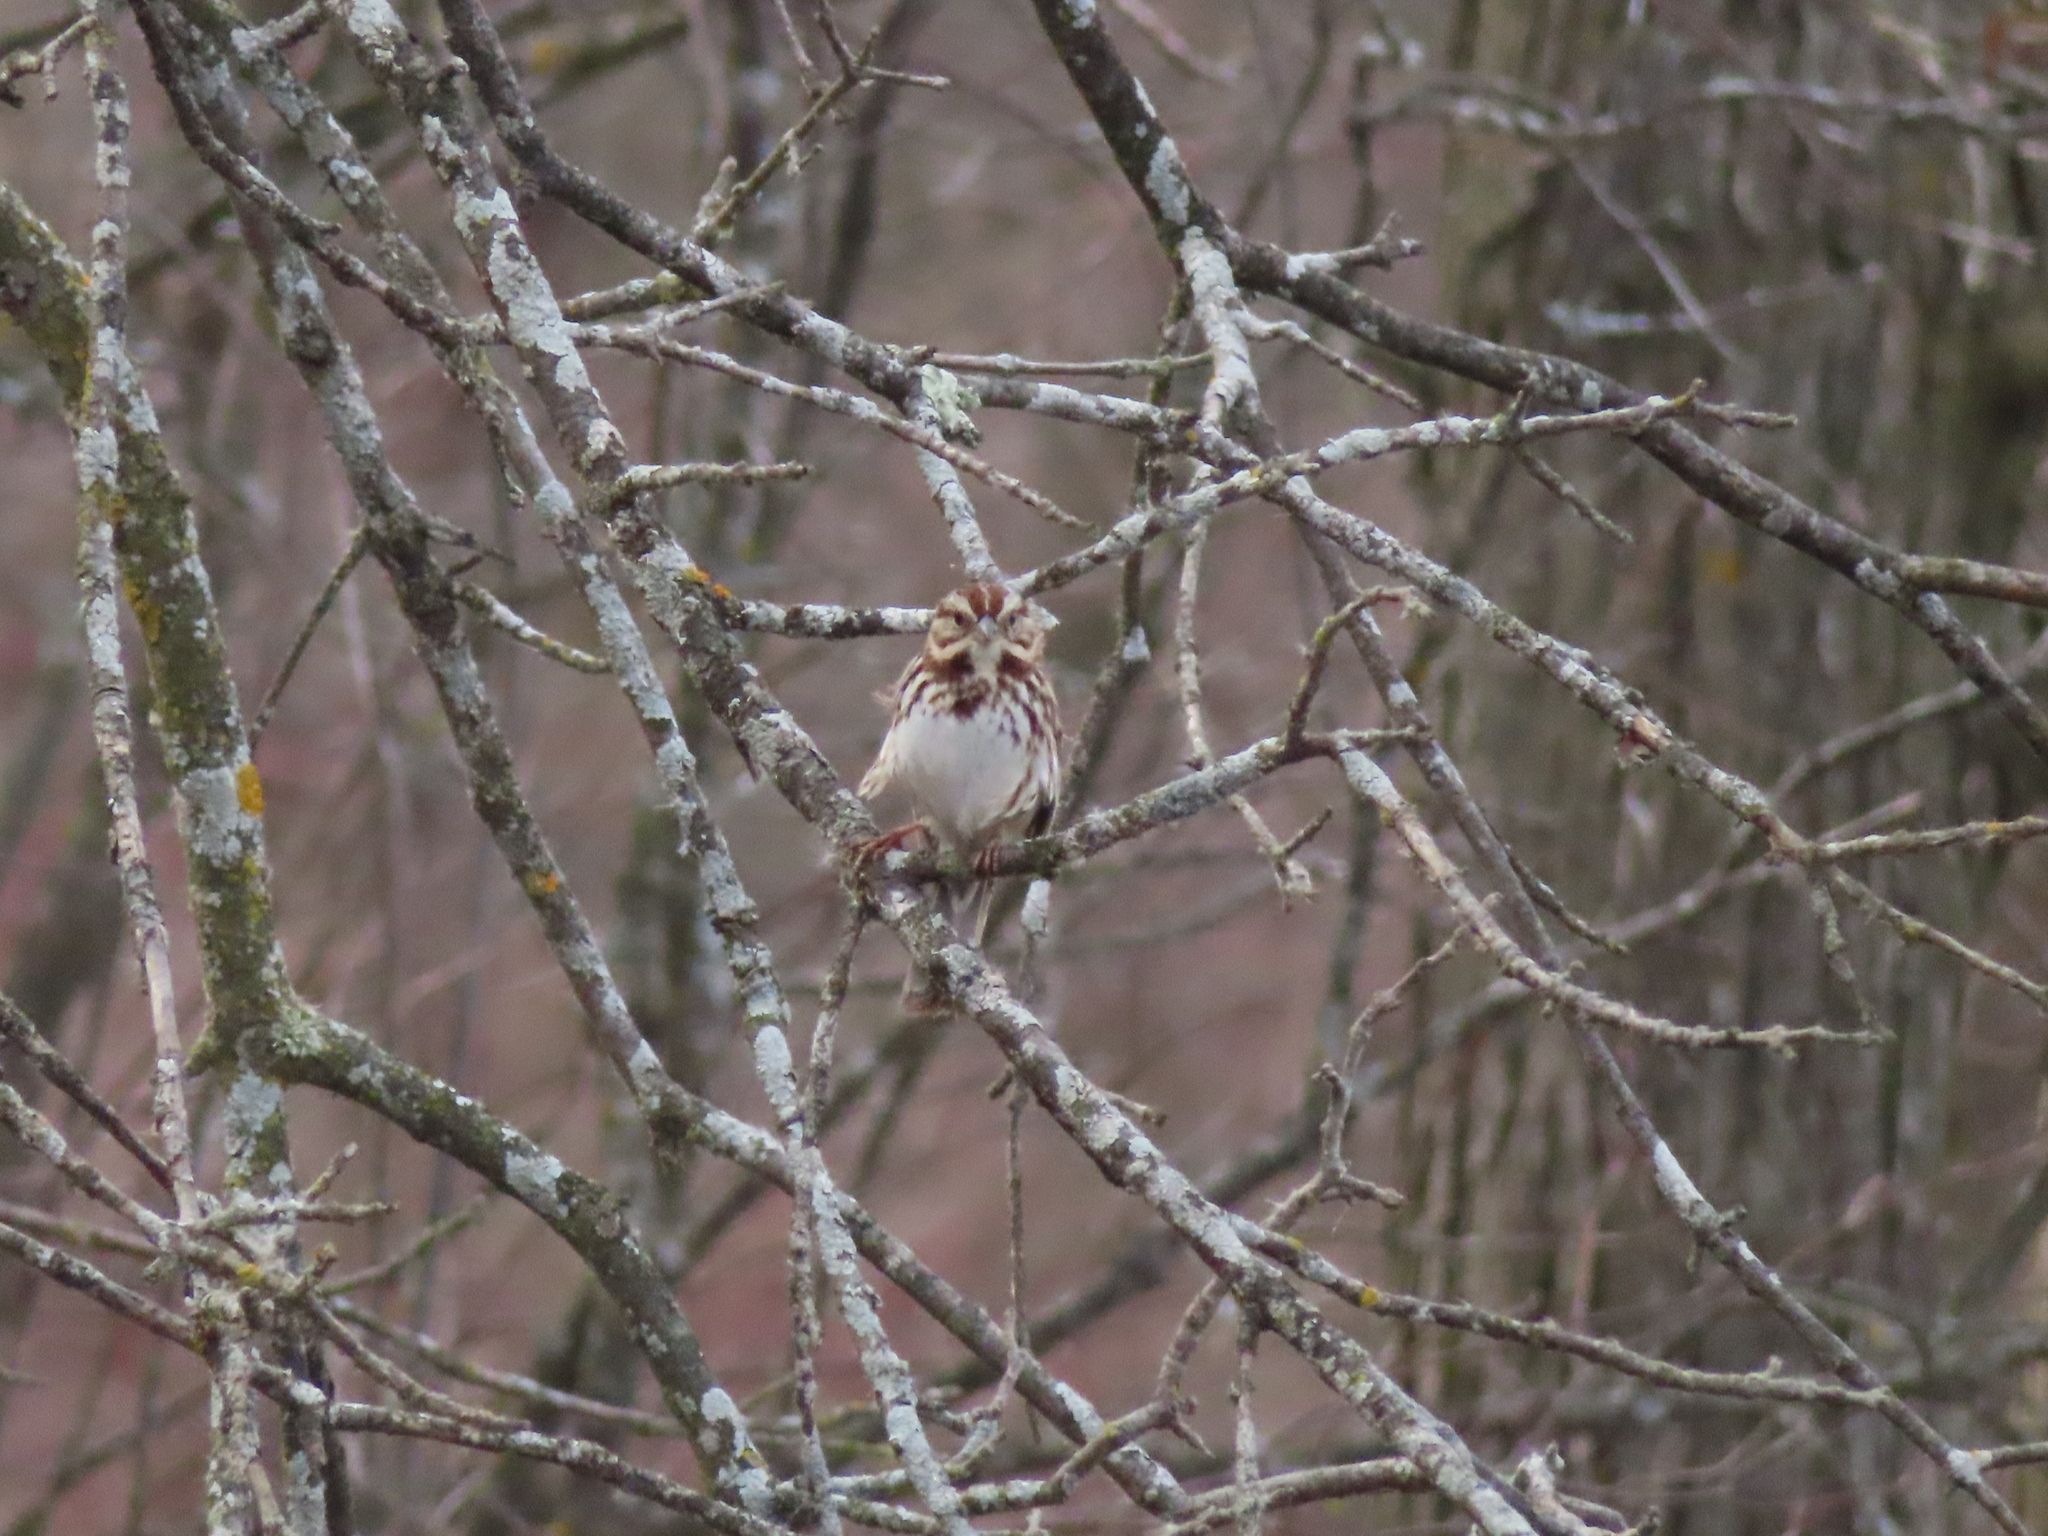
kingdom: Animalia
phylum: Chordata
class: Aves
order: Passeriformes
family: Passerellidae
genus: Melospiza
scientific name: Melospiza melodia
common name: Song sparrow
